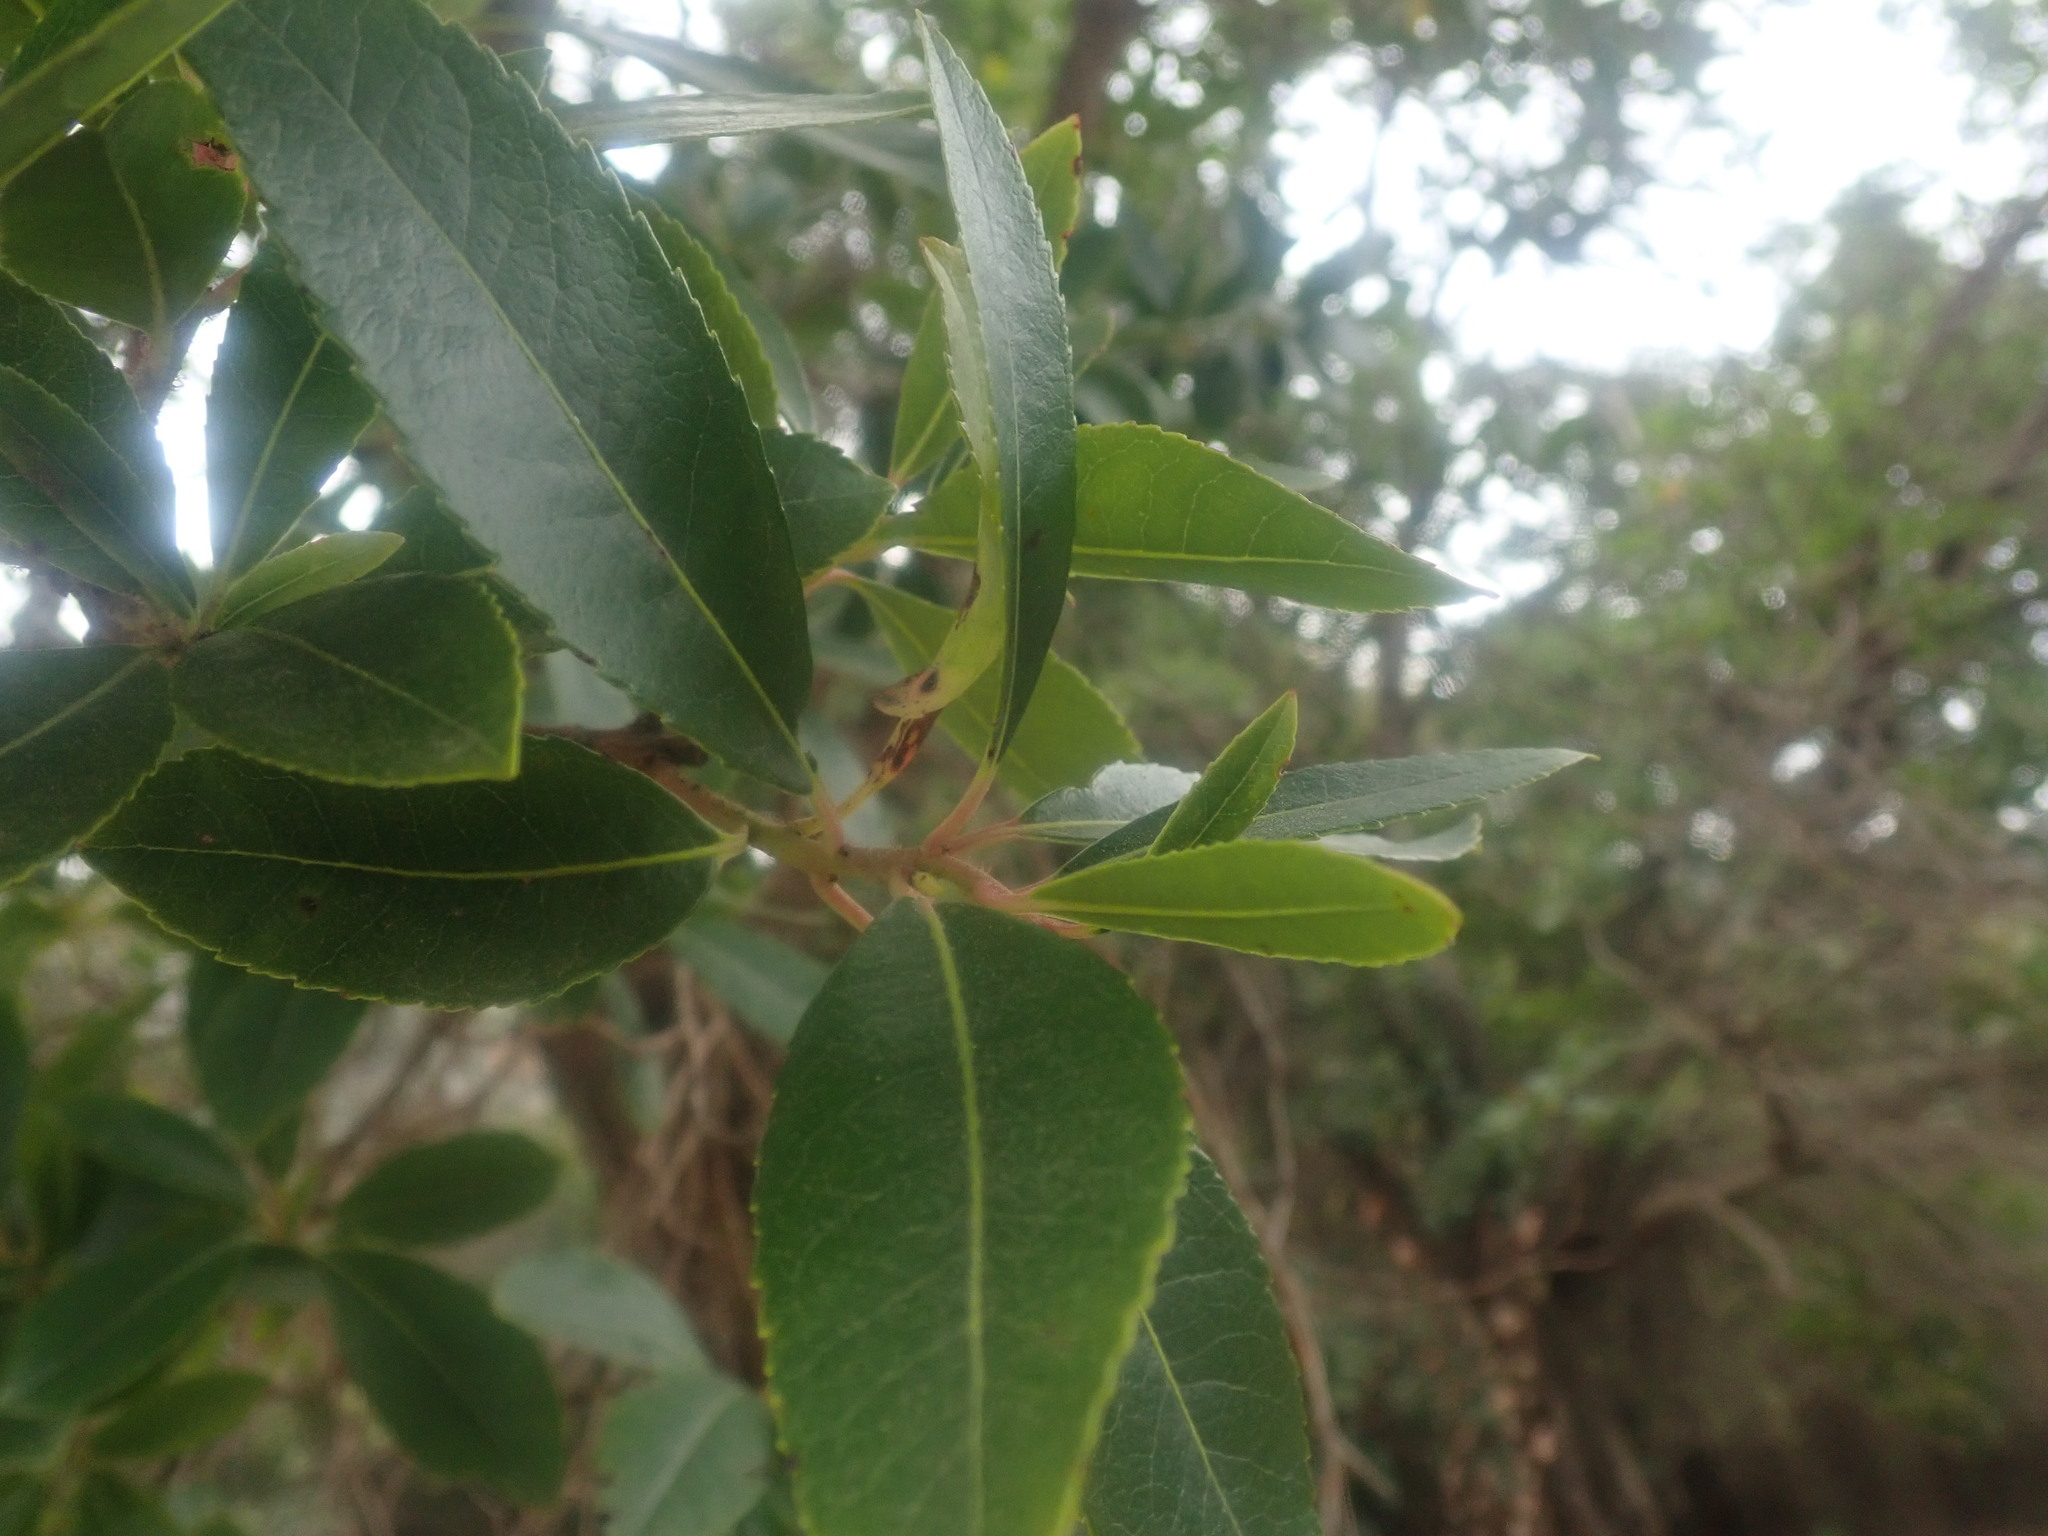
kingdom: Plantae
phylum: Tracheophyta
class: Magnoliopsida
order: Ericales
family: Ericaceae
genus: Arbutus
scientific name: Arbutus unedo
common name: Strawberry-tree
